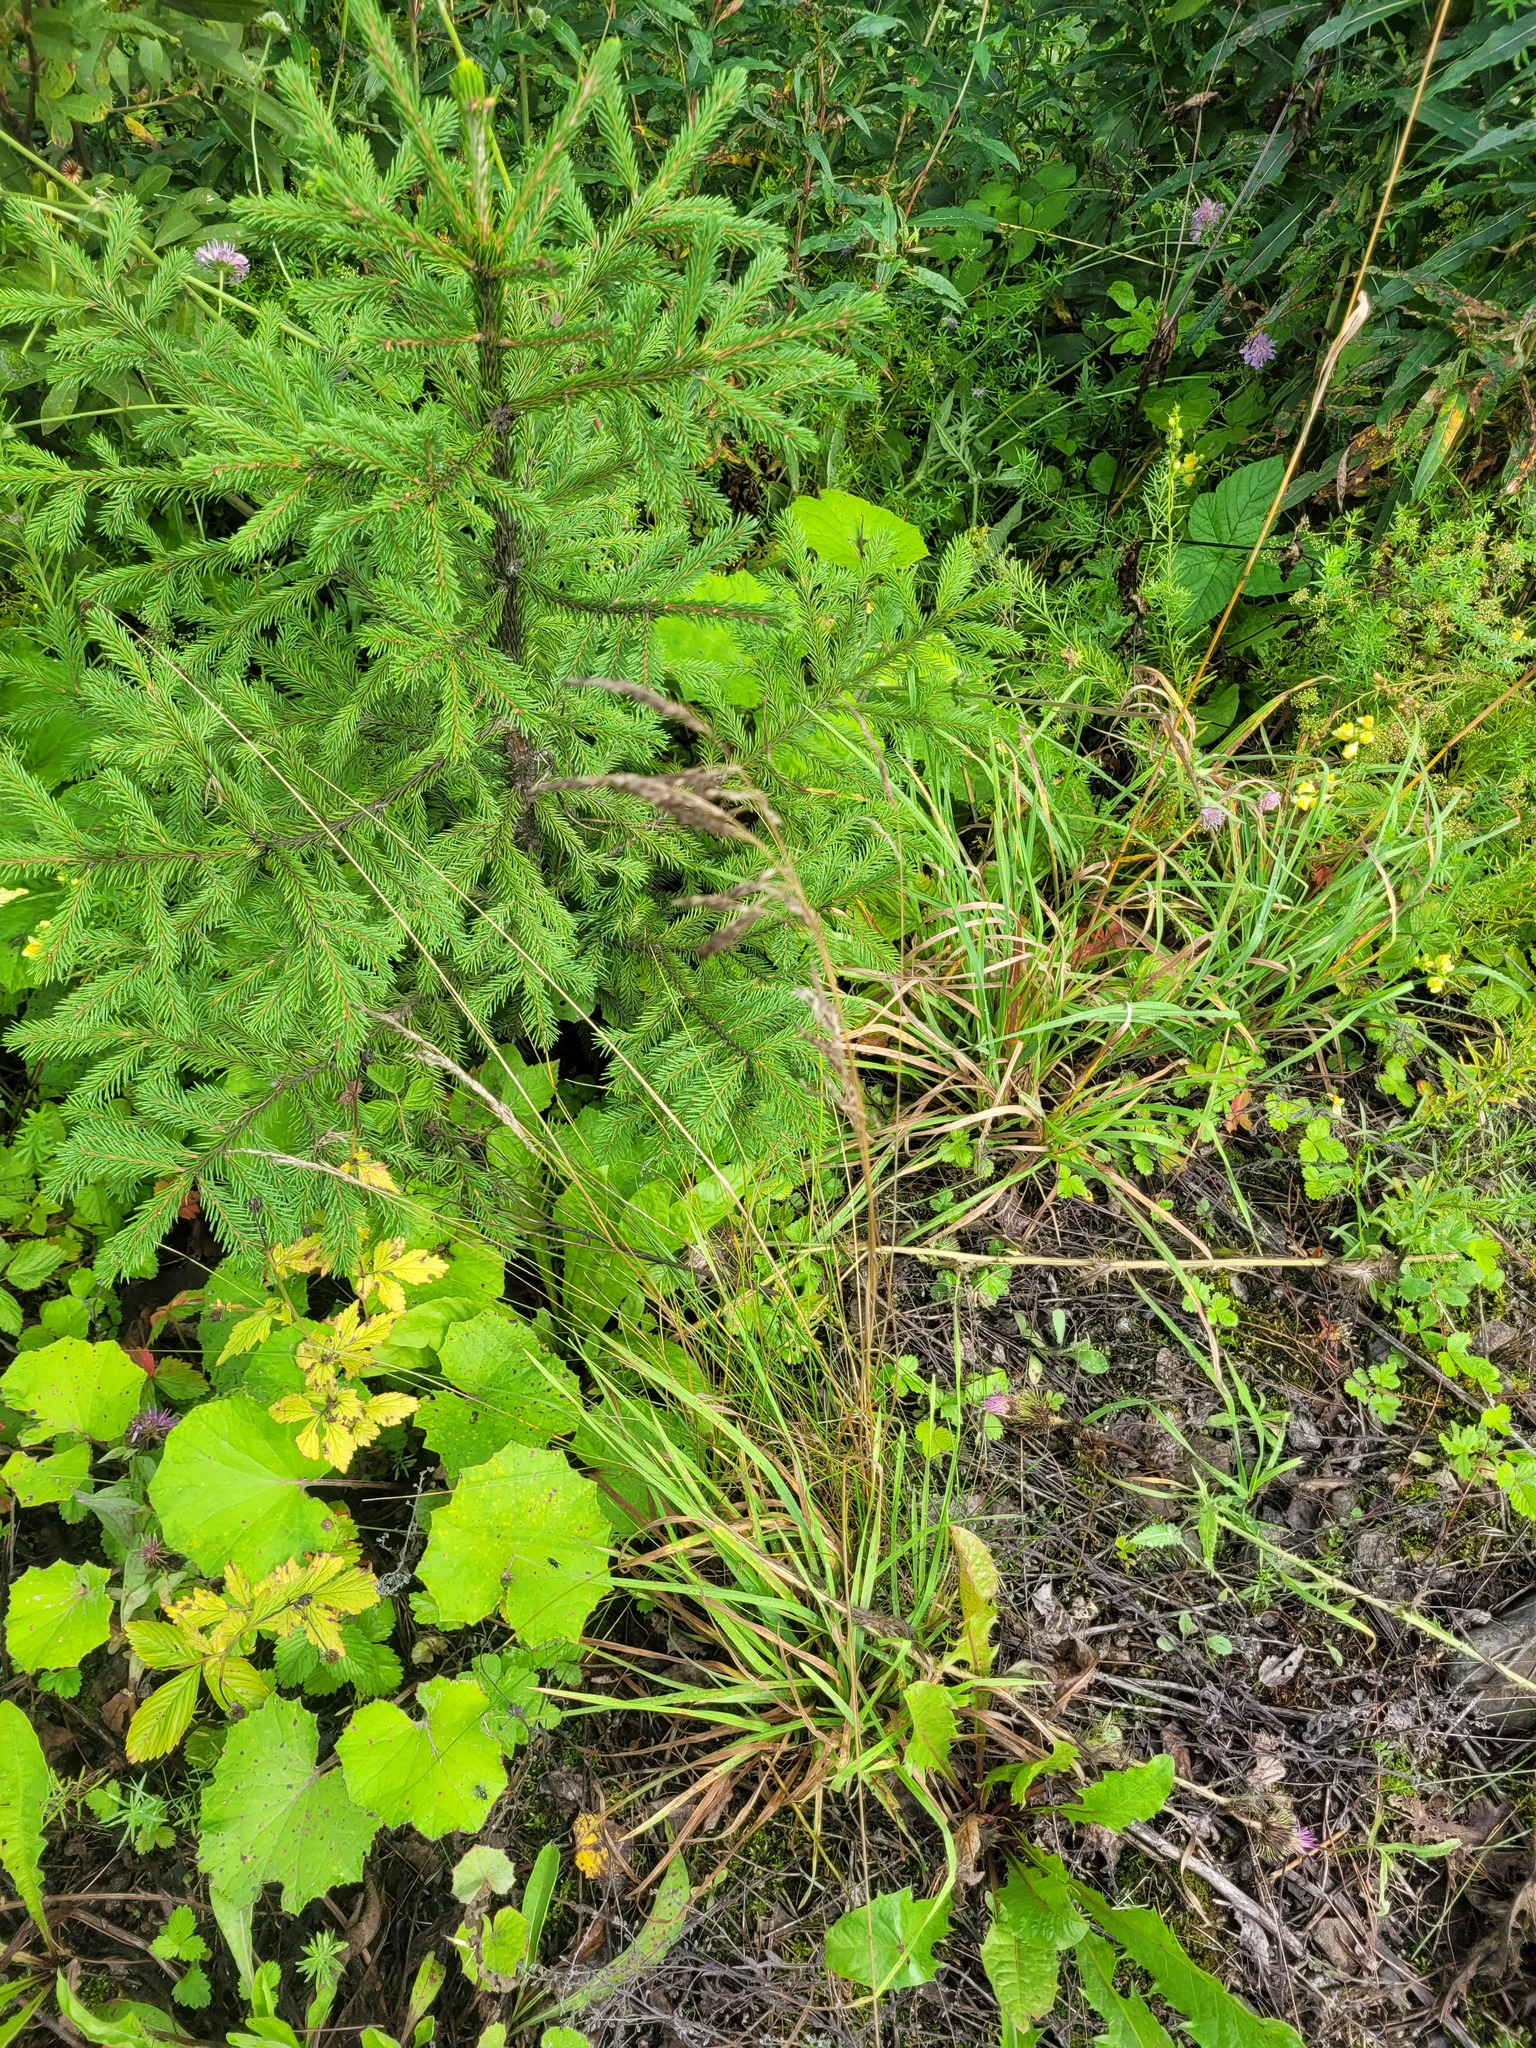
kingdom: Plantae
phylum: Tracheophyta
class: Liliopsida
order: Poales
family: Poaceae
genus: Poa
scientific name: Poa angustifolia
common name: Narrow-leaved meadow-grass
